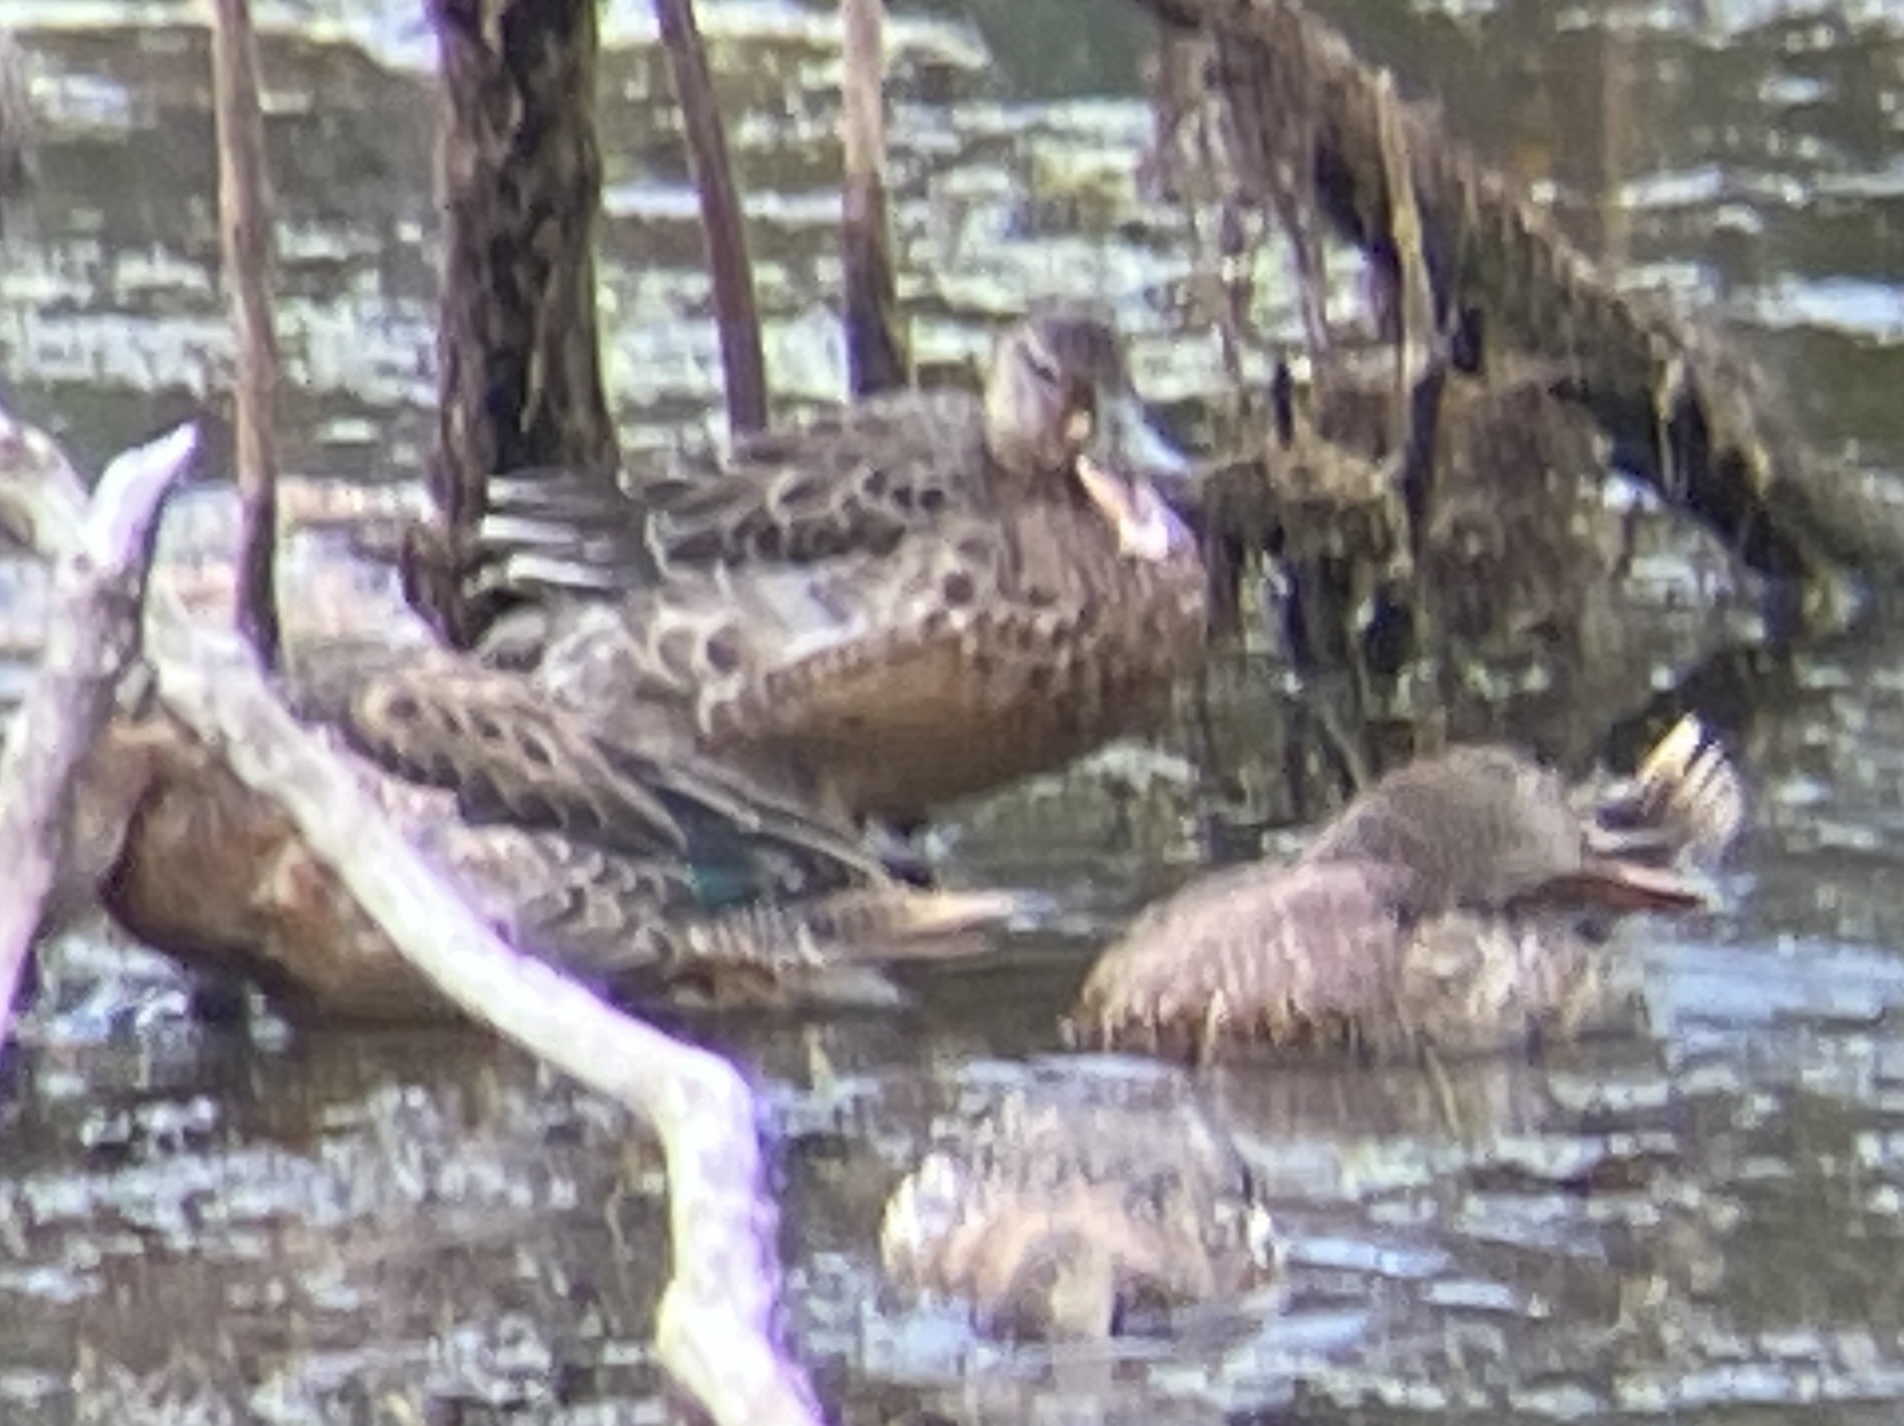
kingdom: Animalia
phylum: Chordata
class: Aves
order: Anseriformes
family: Anatidae
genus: Spatula
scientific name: Spatula clypeata
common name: Northern shoveler
